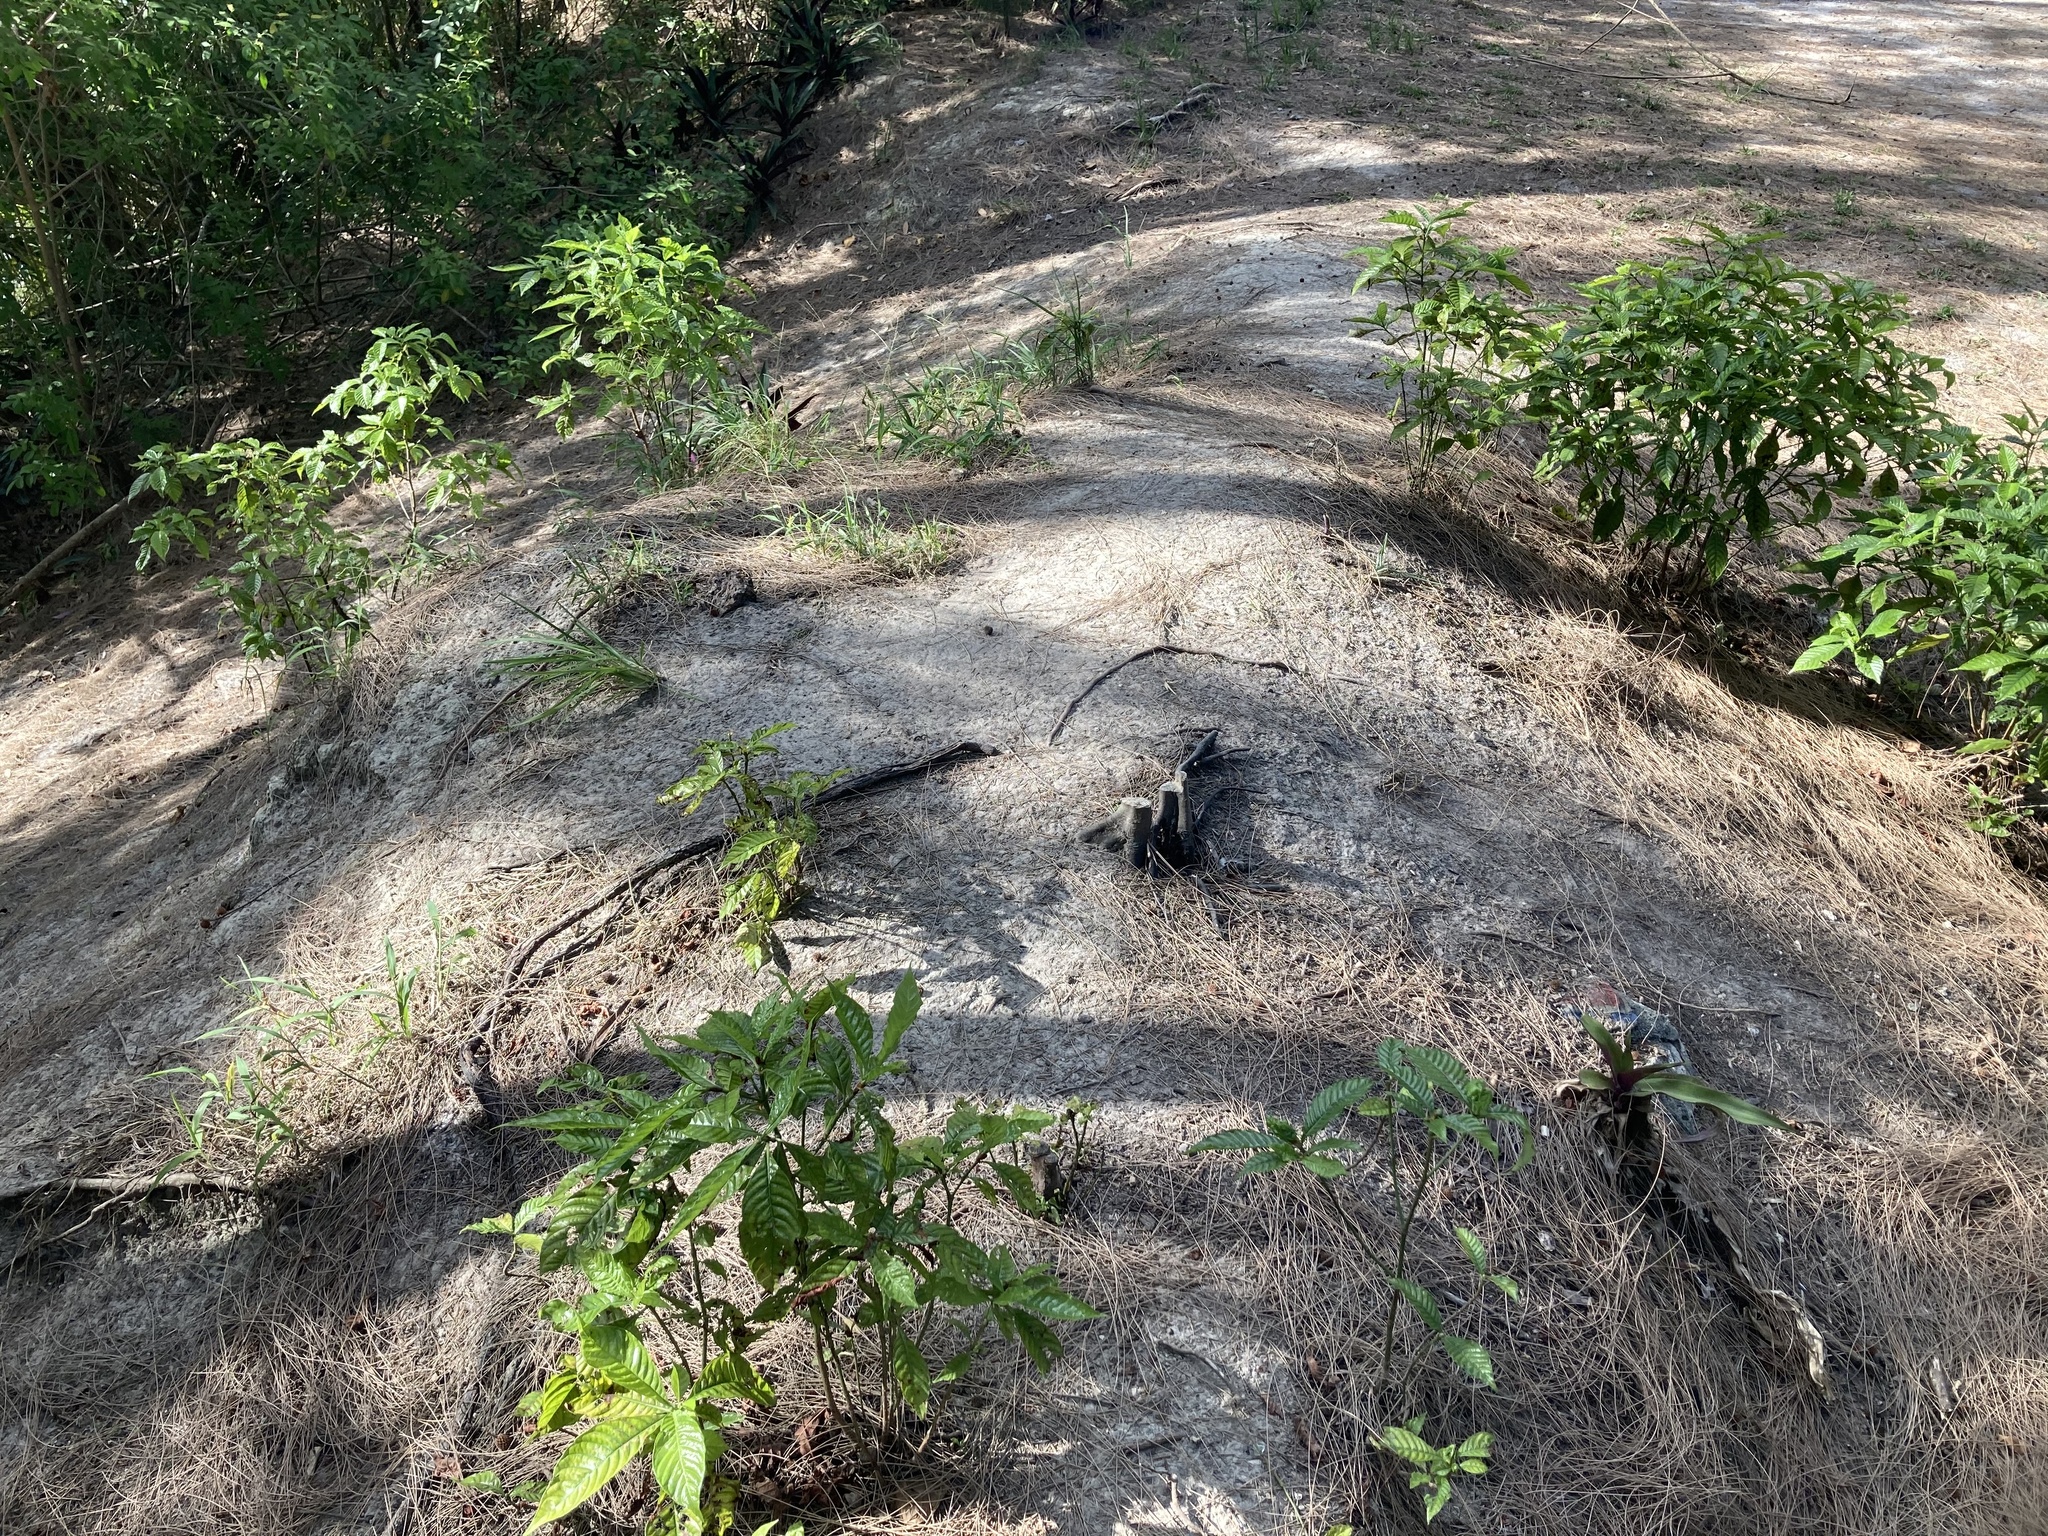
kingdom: Plantae
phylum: Tracheophyta
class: Magnoliopsida
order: Gentianales
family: Rubiaceae
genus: Psychotria
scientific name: Psychotria nervosa
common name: Bastard cankerberry
